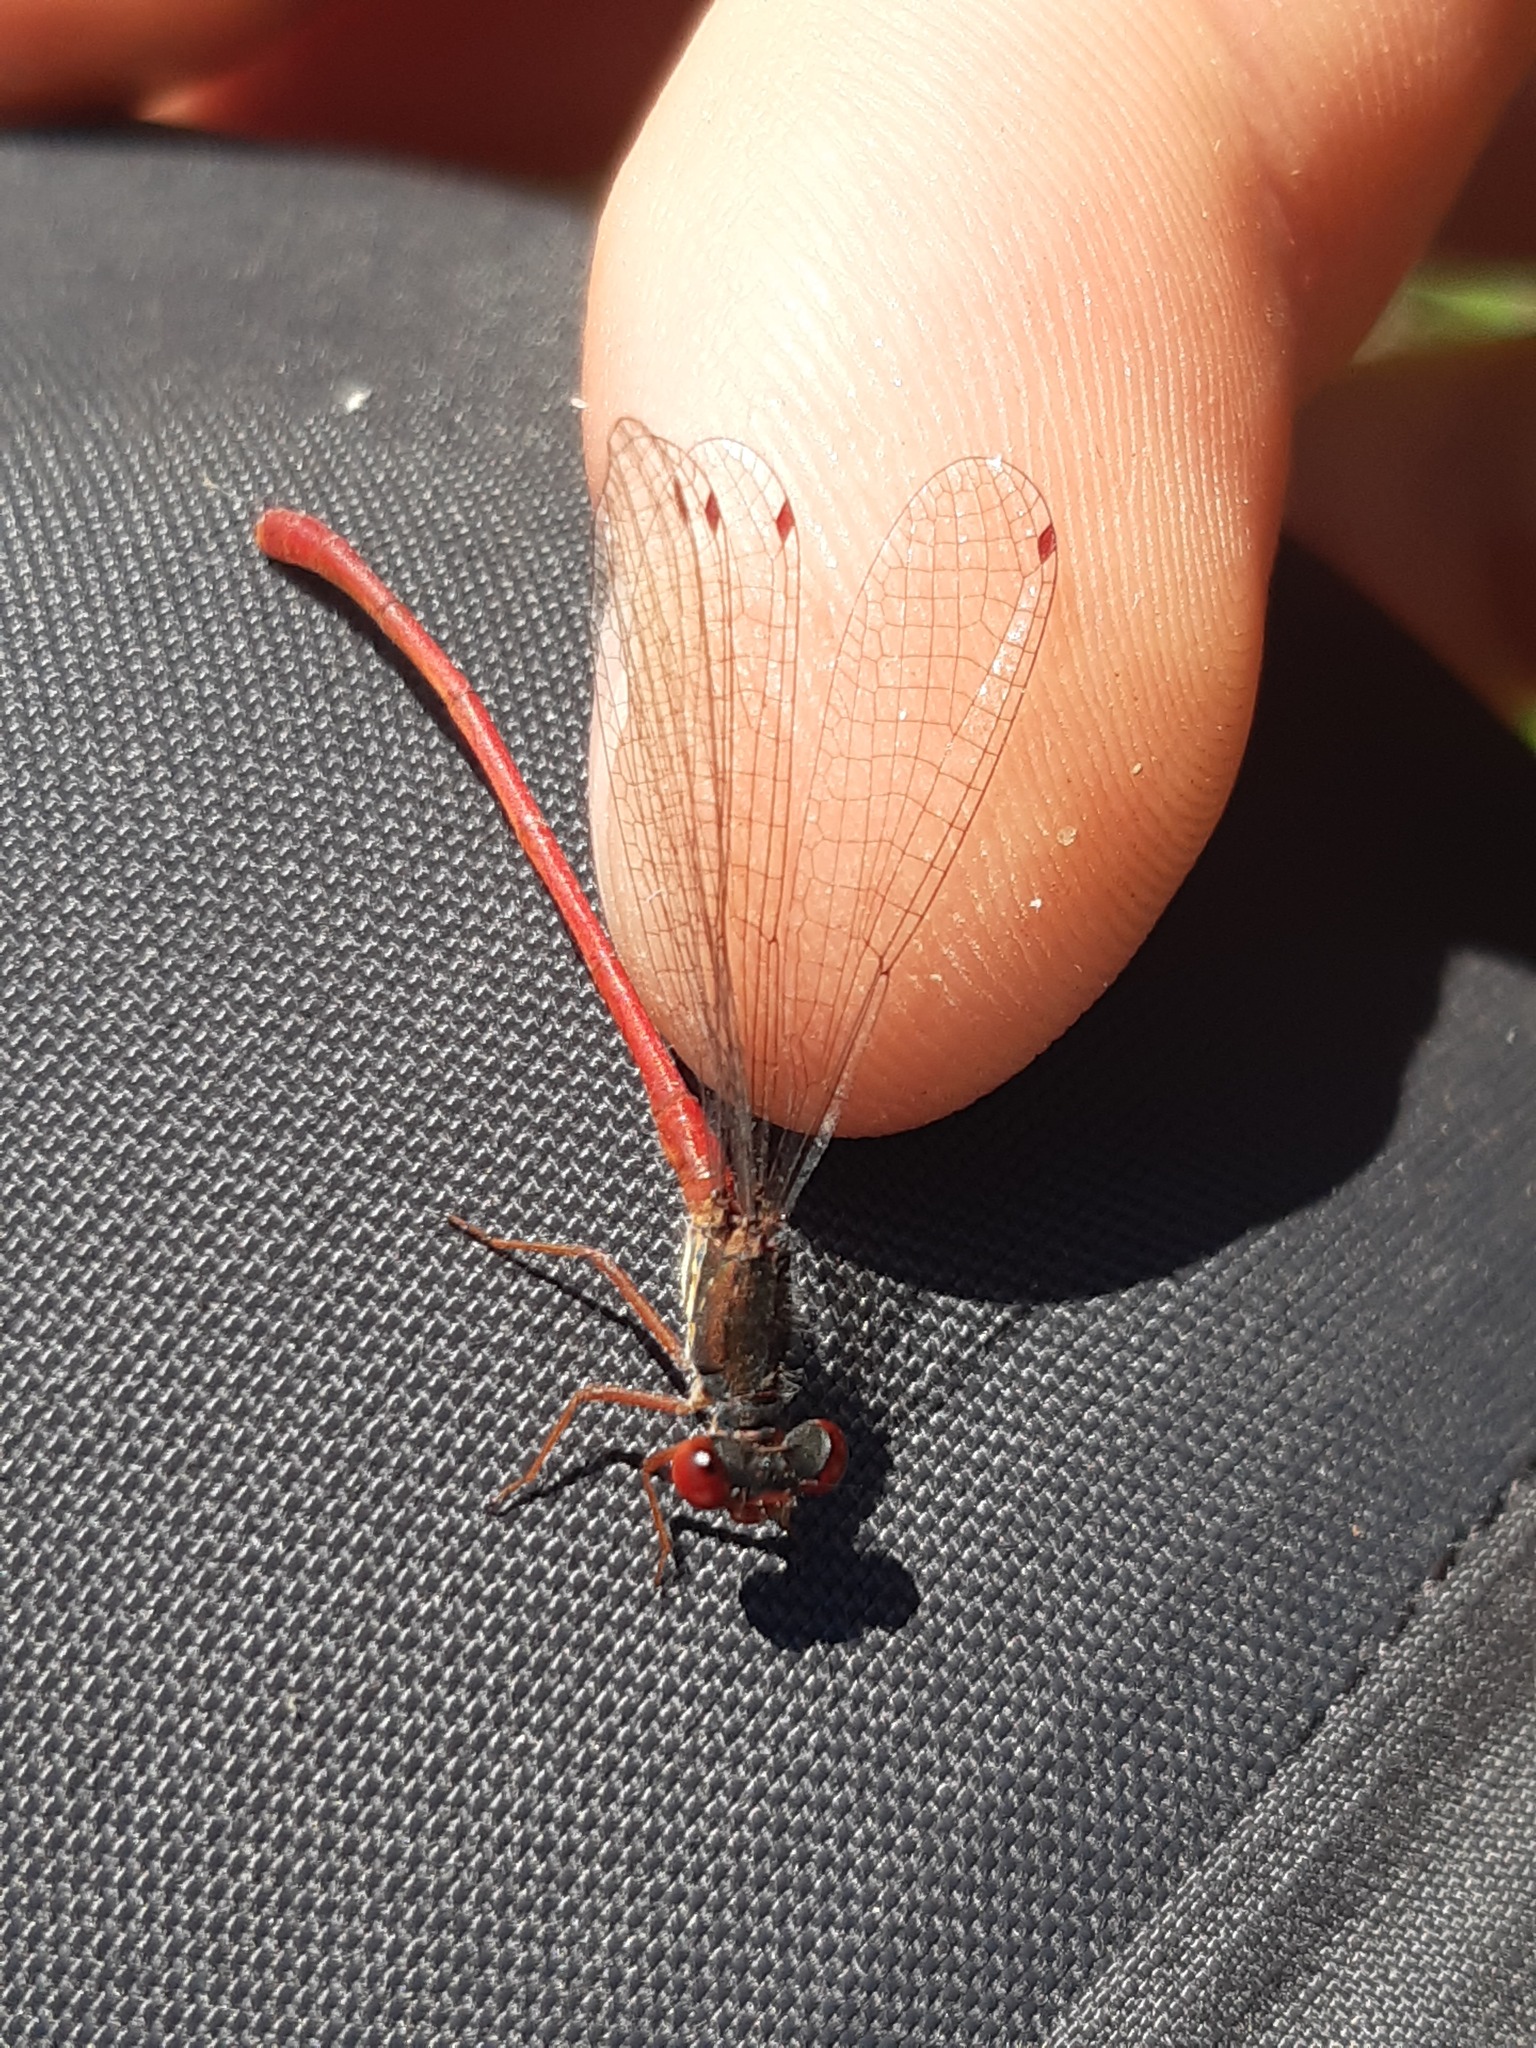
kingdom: Animalia
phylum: Arthropoda
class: Insecta
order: Odonata
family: Coenagrionidae
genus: Ceriagrion
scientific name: Ceriagrion tenellum
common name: Small red damselfly
